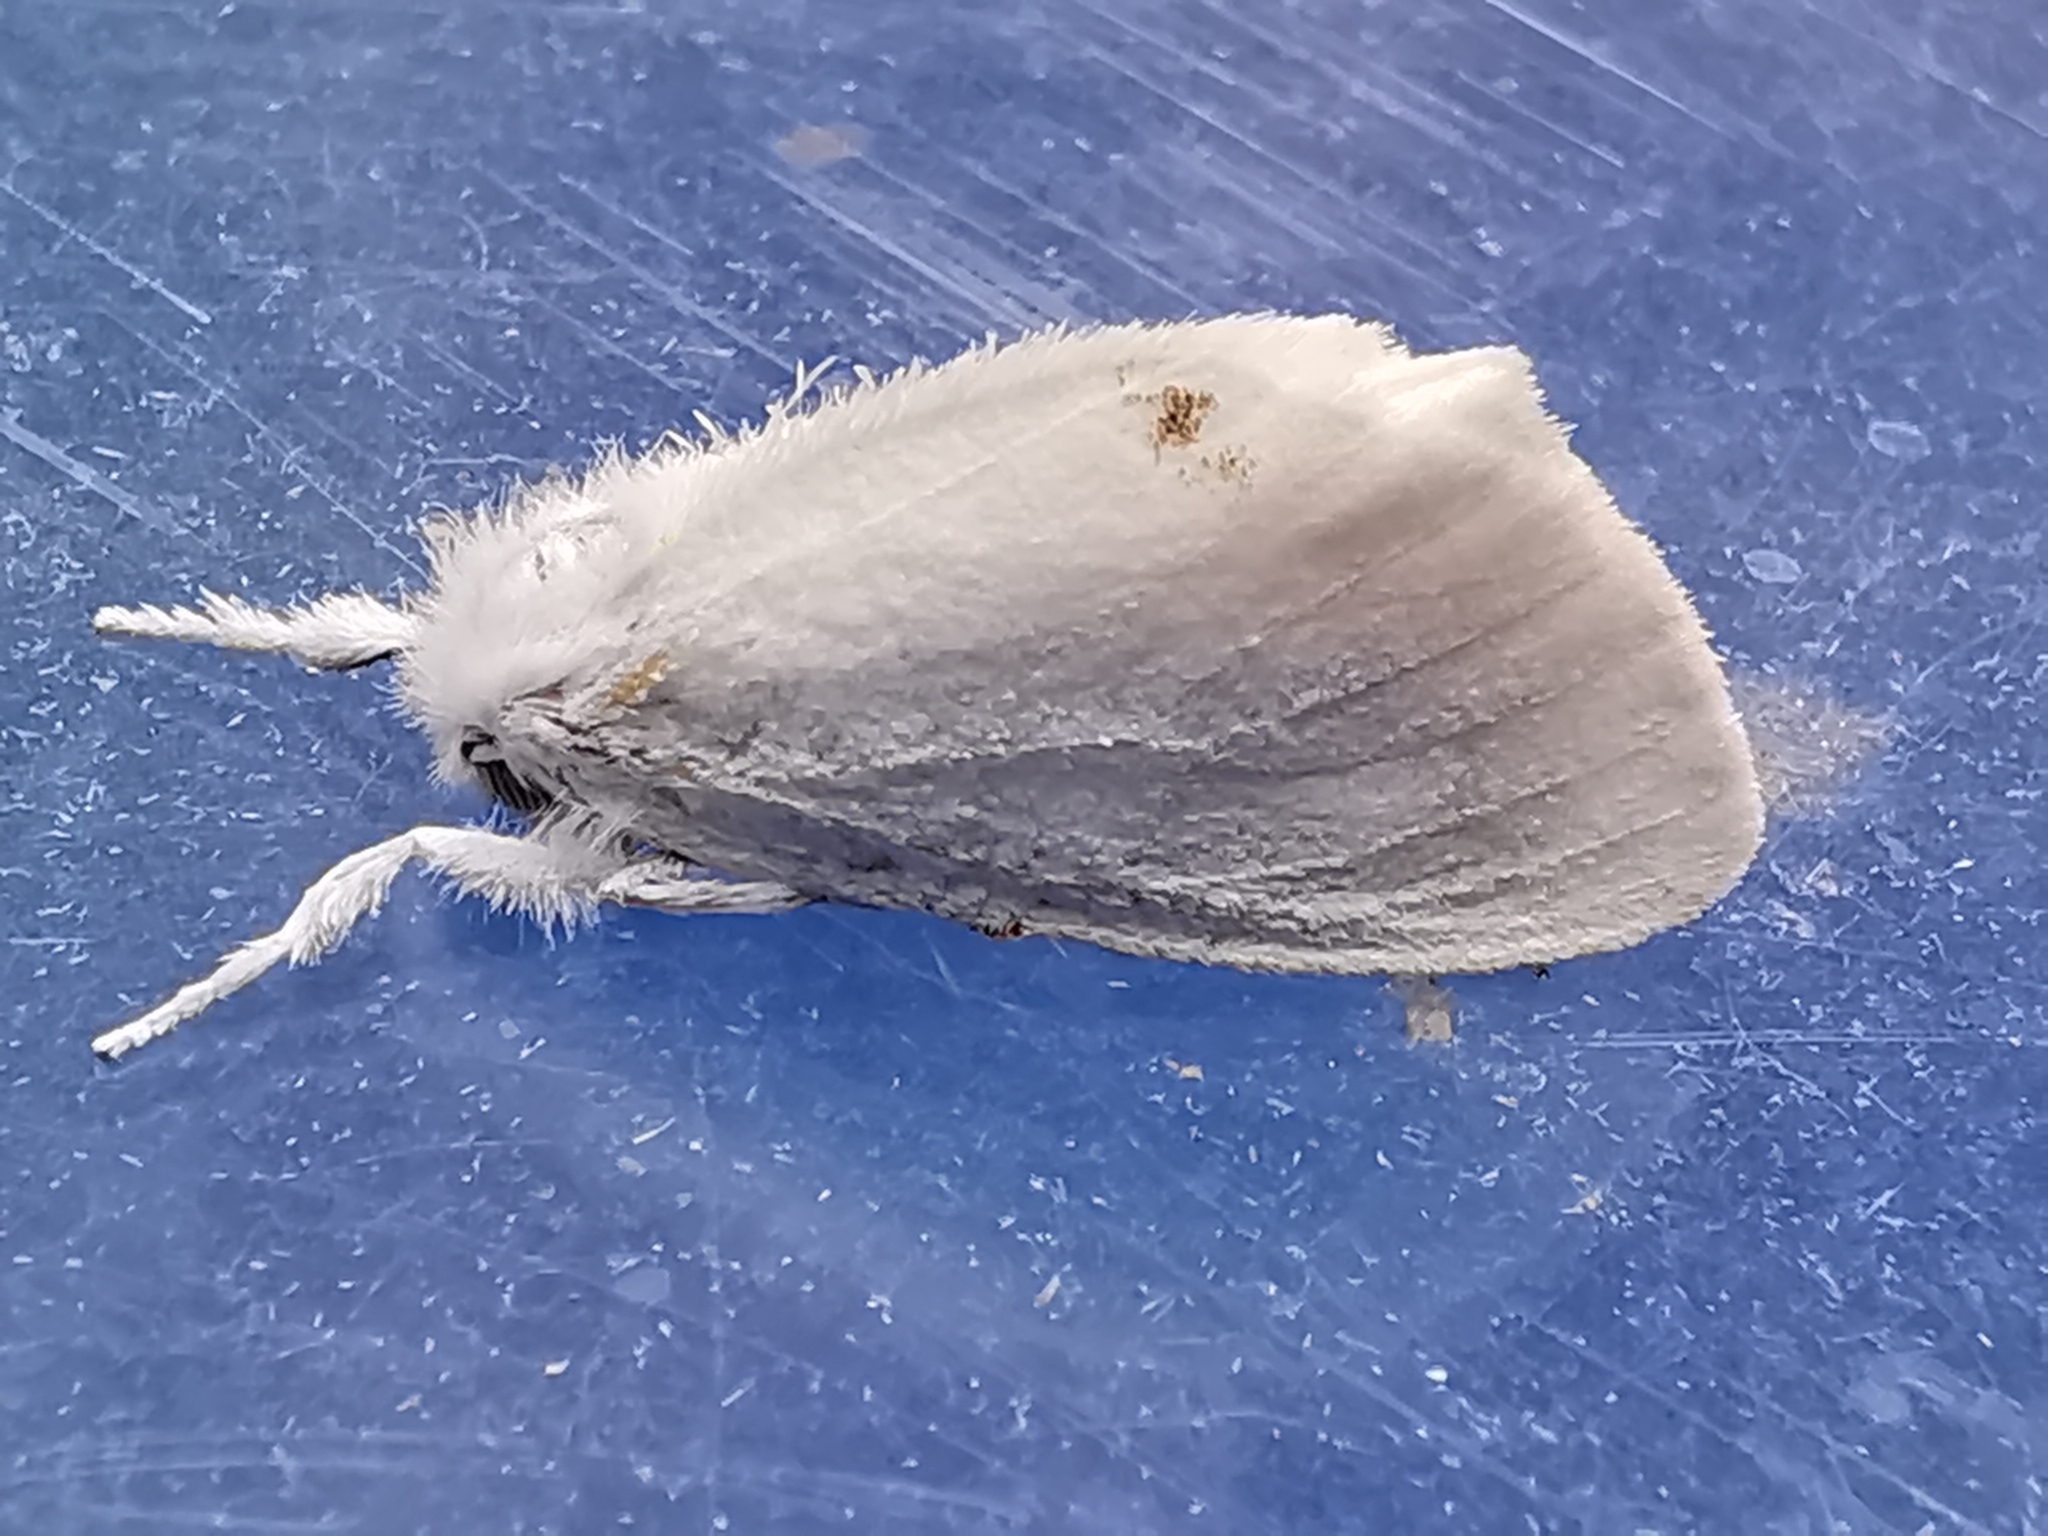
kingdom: Animalia
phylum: Arthropoda
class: Insecta
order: Lepidoptera
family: Erebidae
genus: Sphrageidus
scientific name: Sphrageidus similis
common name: Yellow-tail
